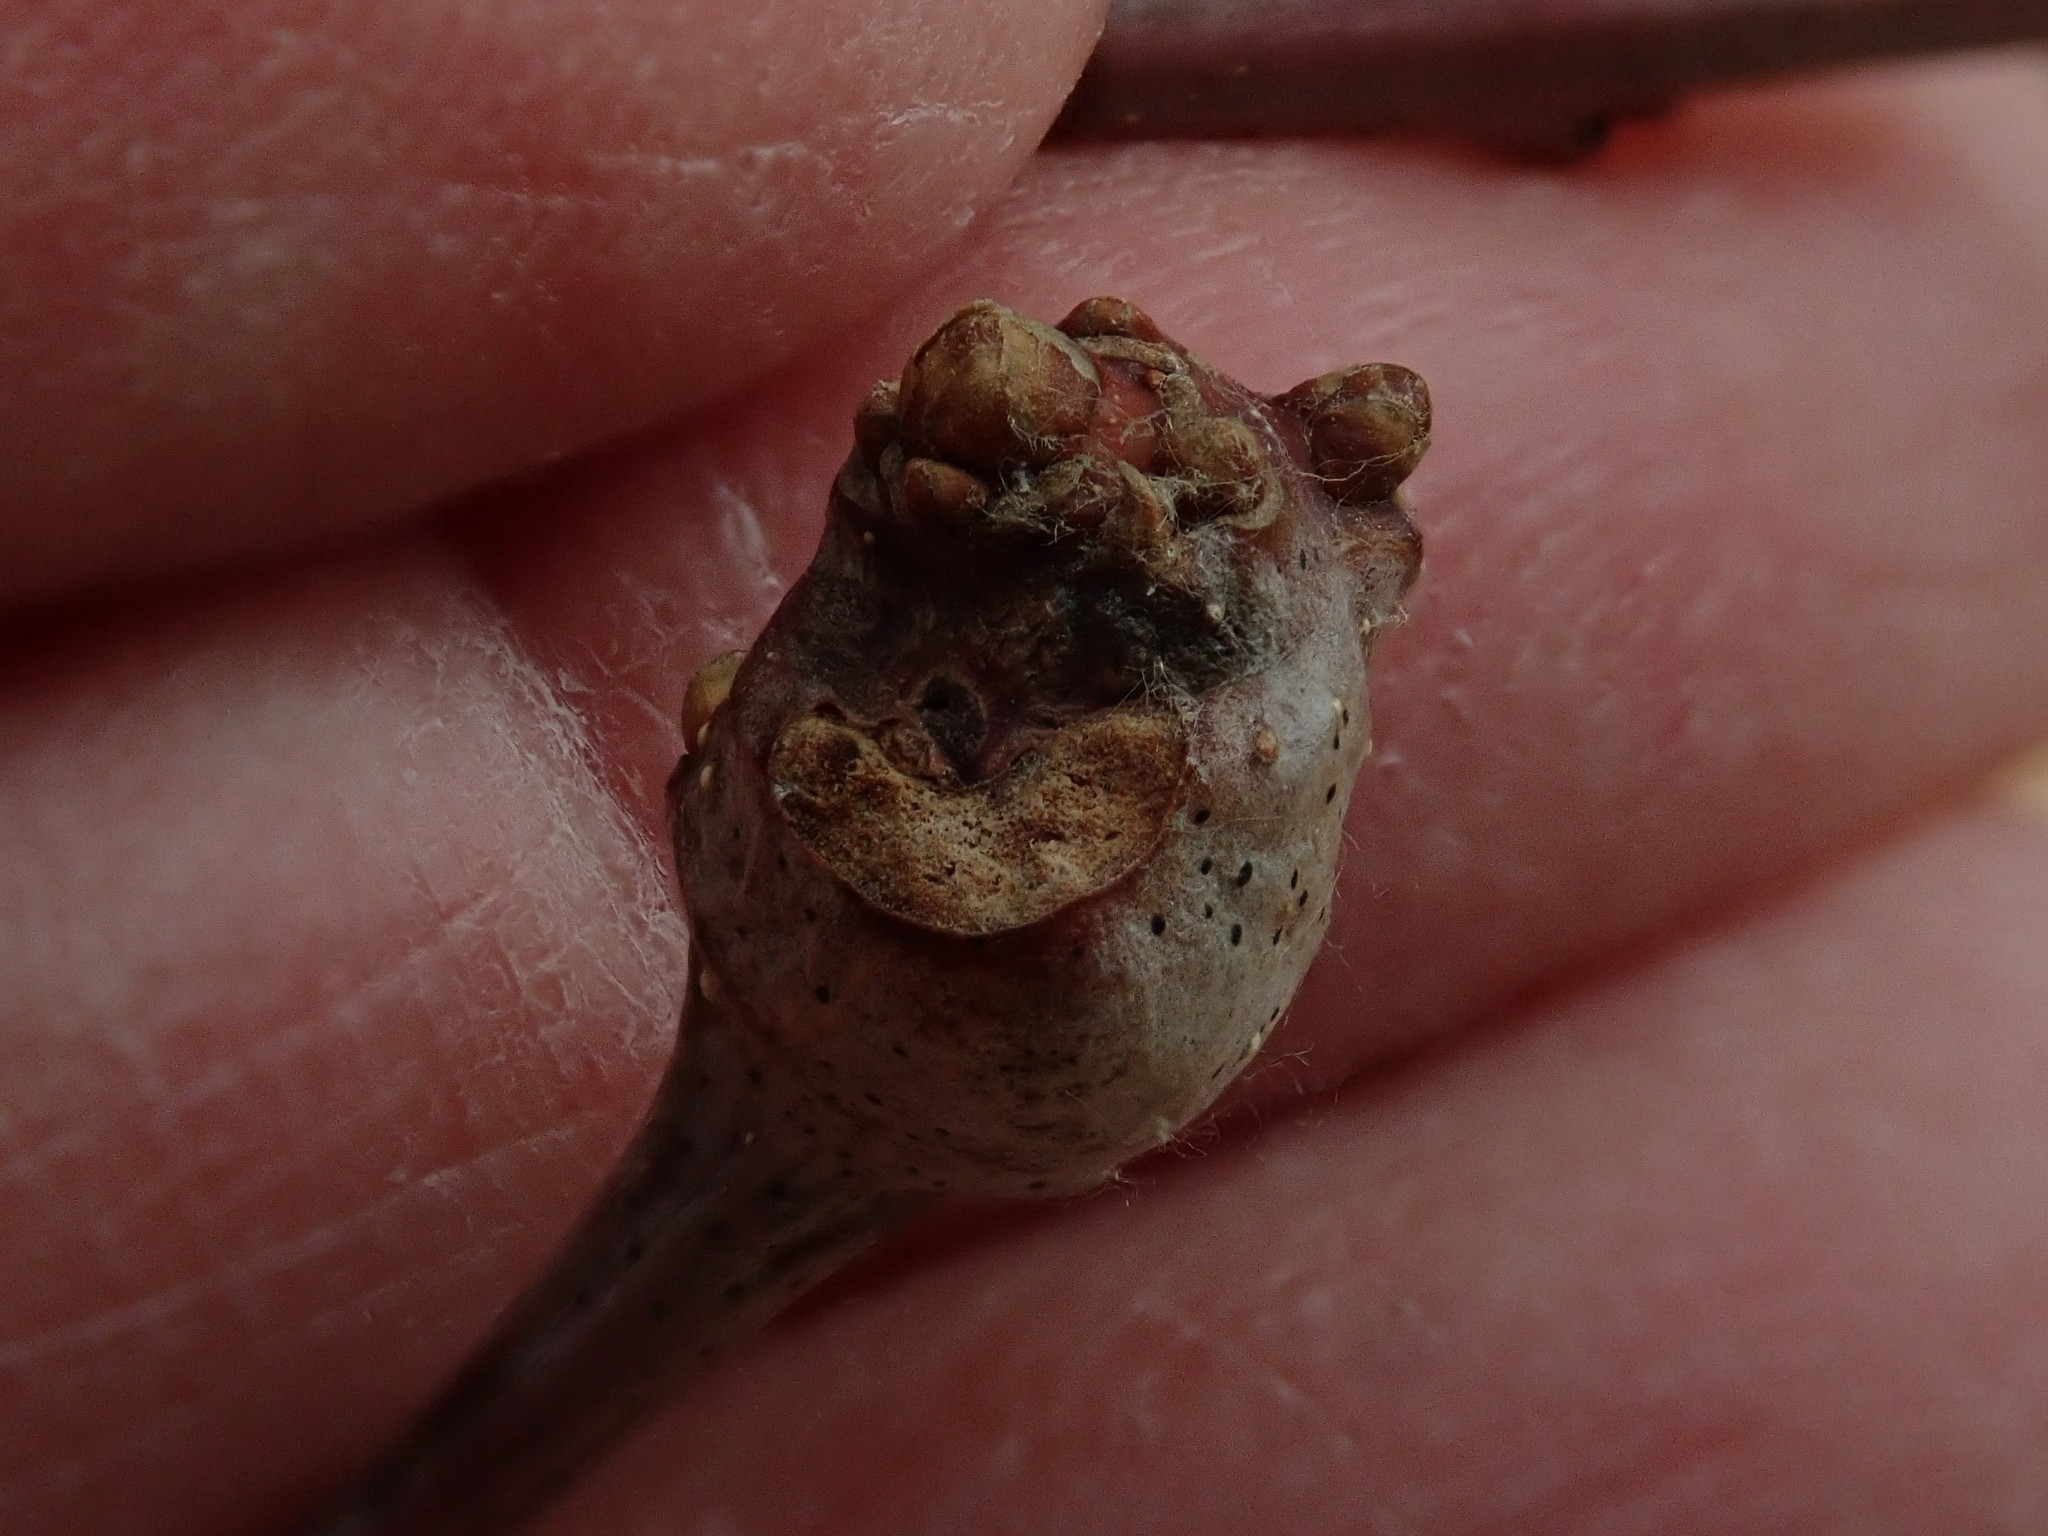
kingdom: Animalia
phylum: Arthropoda
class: Insecta
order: Hymenoptera
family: Cynipidae
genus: Callirhytis
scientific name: Callirhytis clavula
